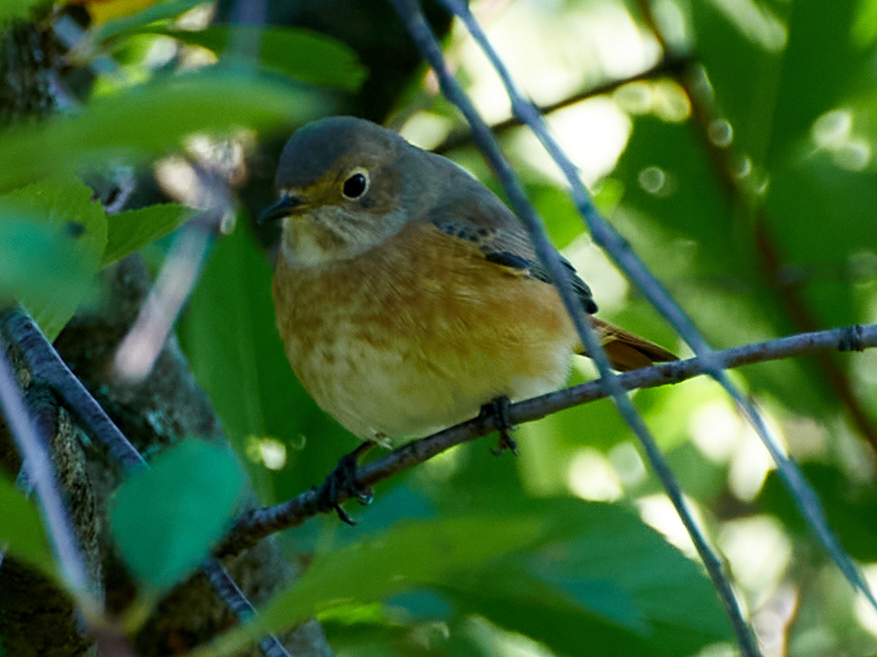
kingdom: Animalia
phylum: Chordata
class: Aves
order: Passeriformes
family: Muscicapidae
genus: Phoenicurus
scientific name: Phoenicurus phoenicurus
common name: Common redstart
